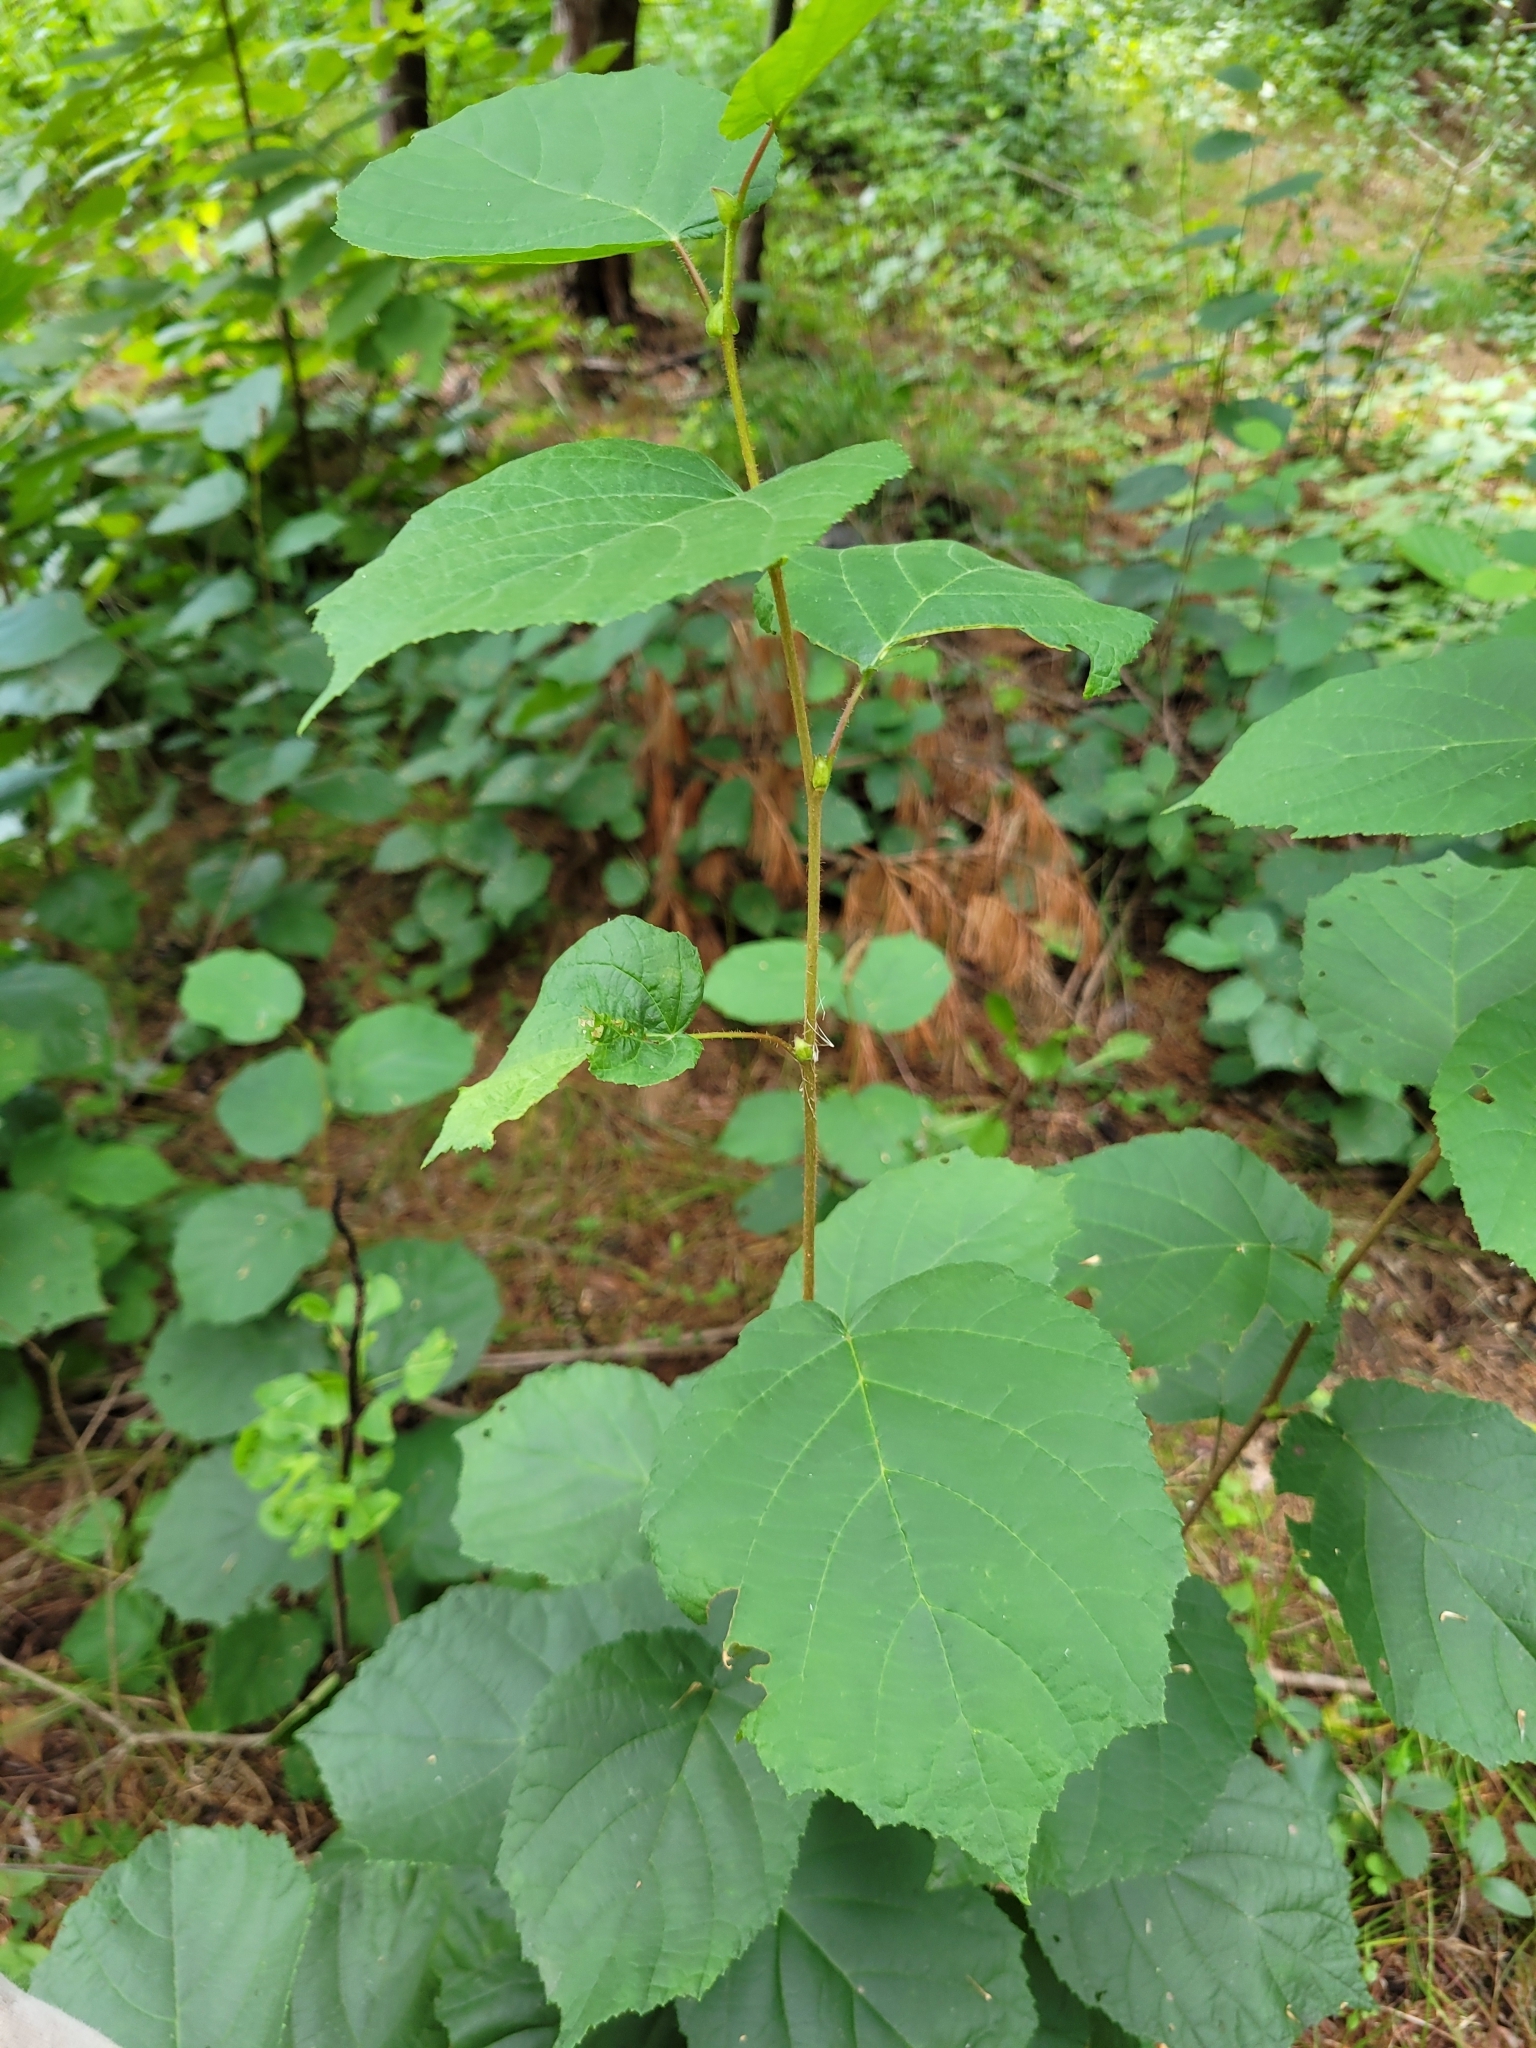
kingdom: Plantae
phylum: Tracheophyta
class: Magnoliopsida
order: Fagales
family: Betulaceae
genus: Corylus
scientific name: Corylus americana
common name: American hazel
